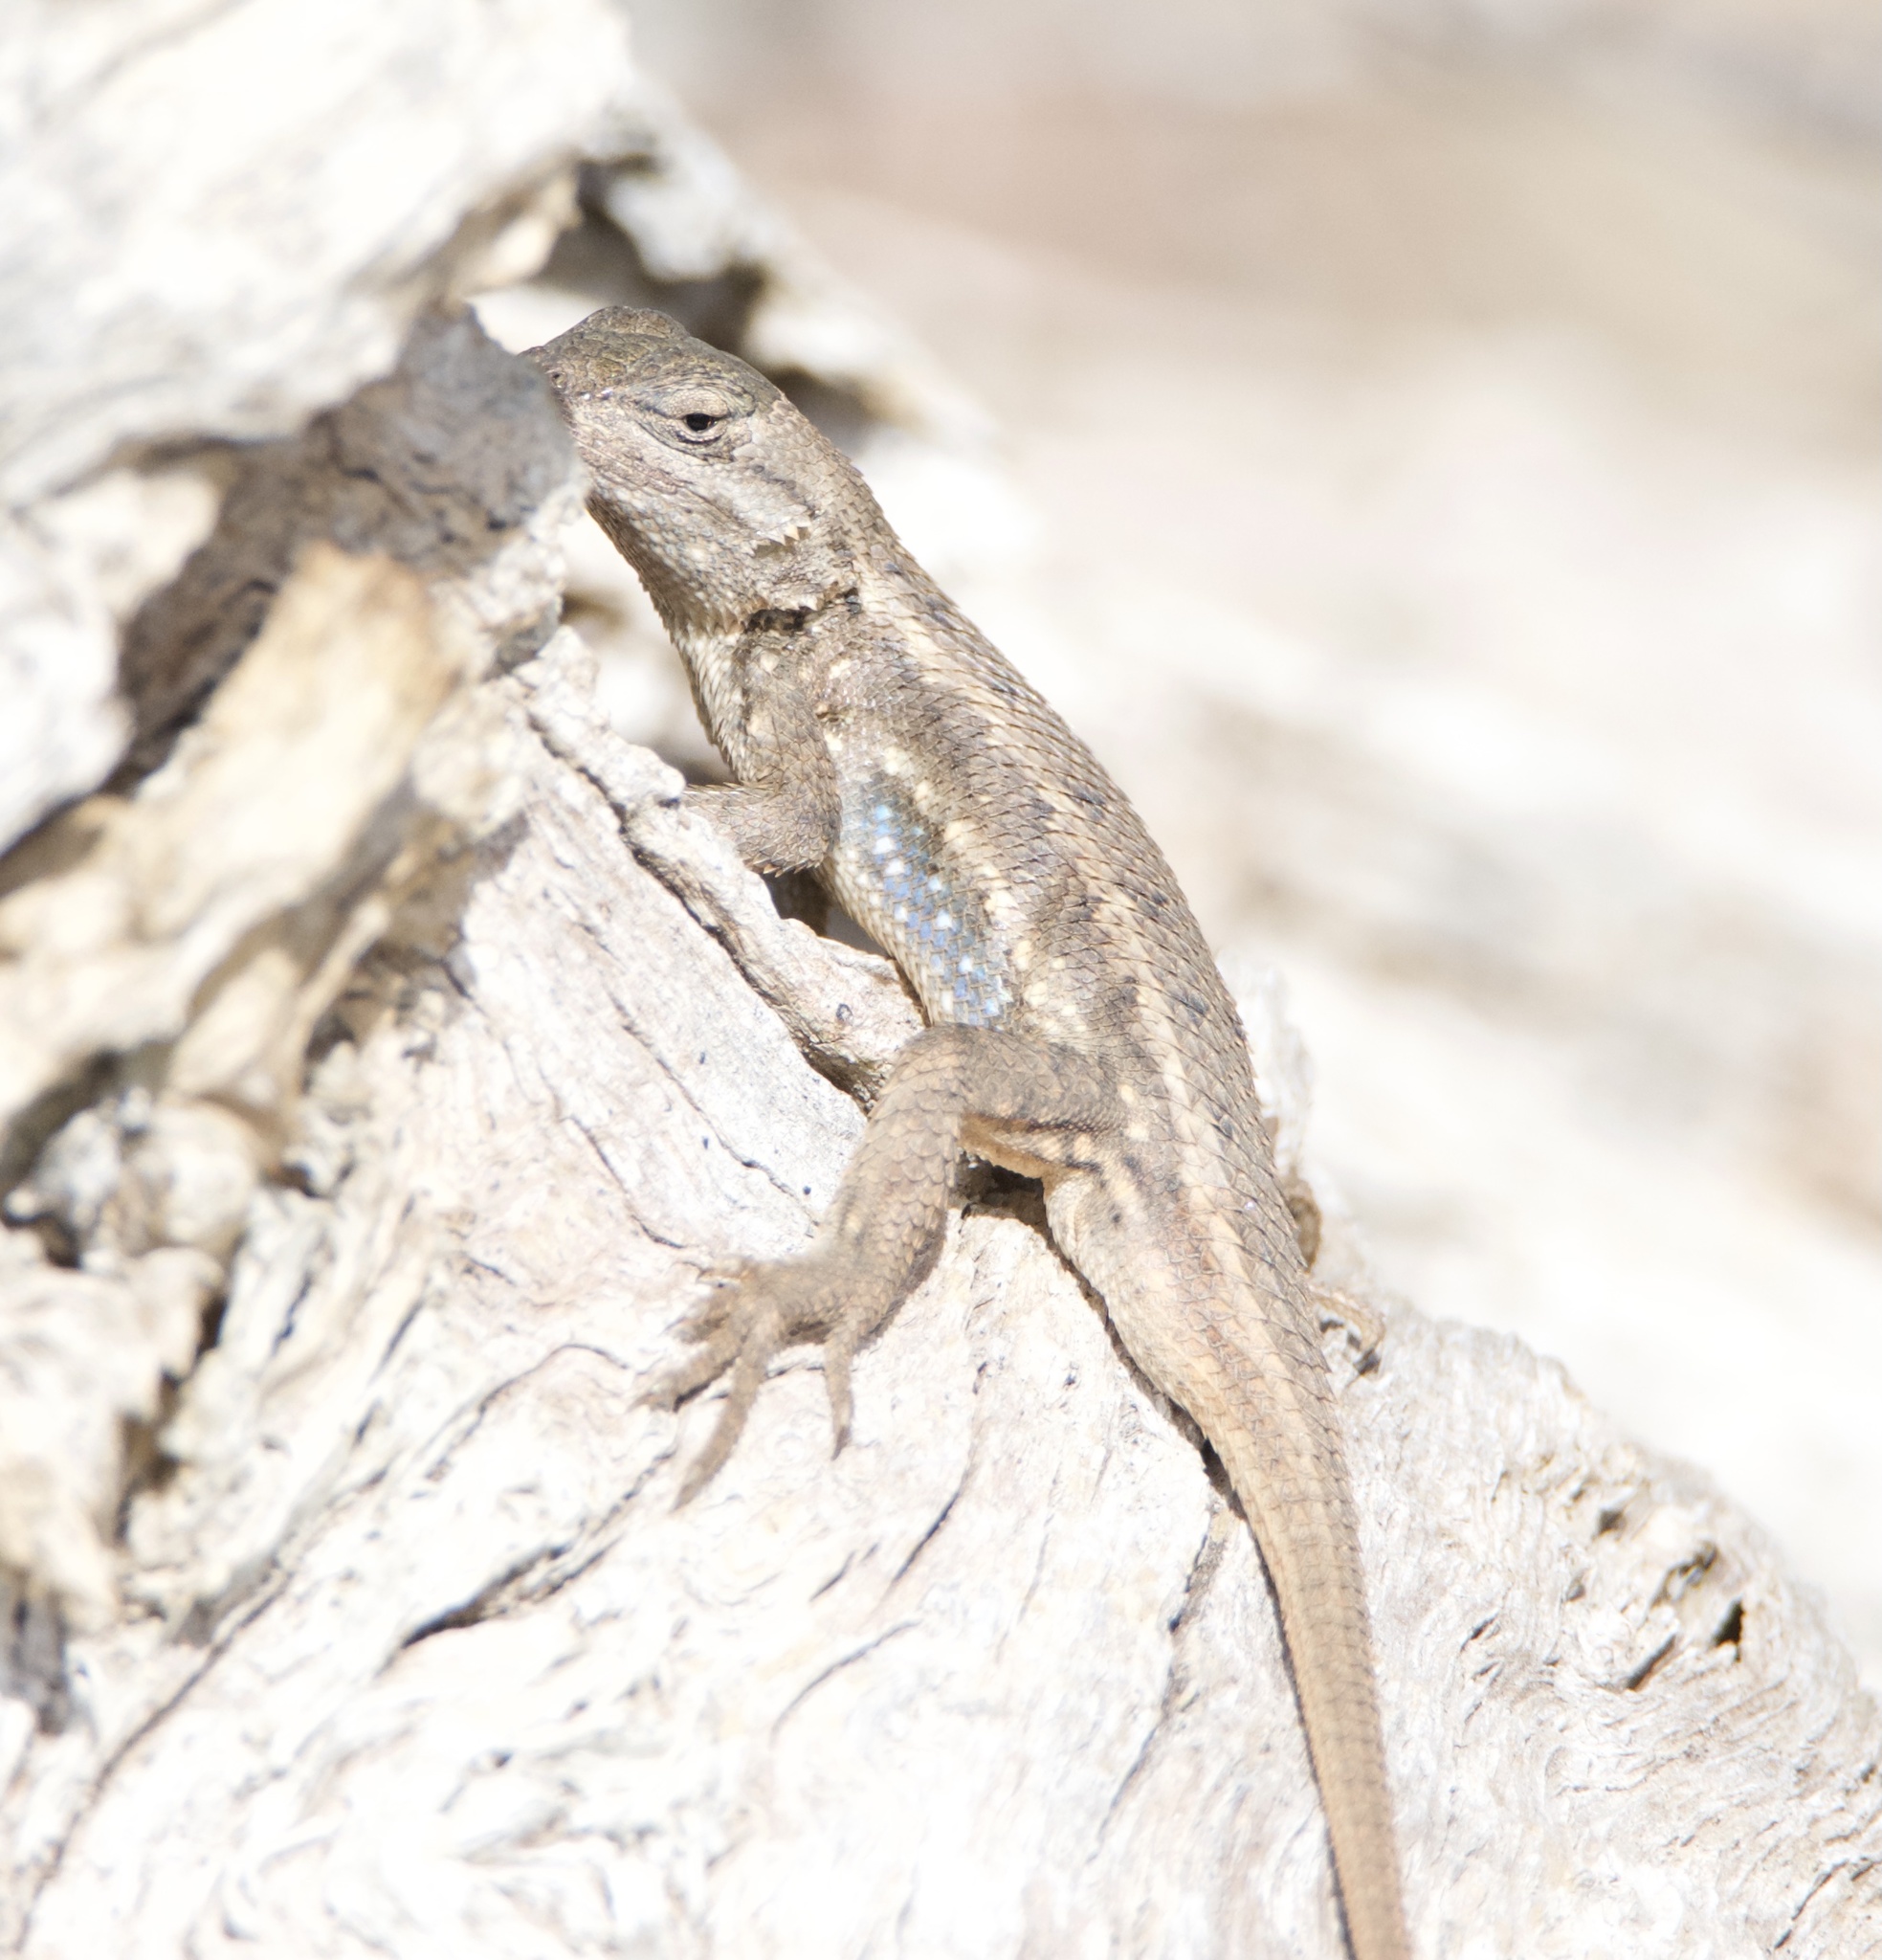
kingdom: Animalia
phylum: Chordata
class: Squamata
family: Phrynosomatidae
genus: Sceloporus
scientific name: Sceloporus consobrinus
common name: Southern prairie lizard
